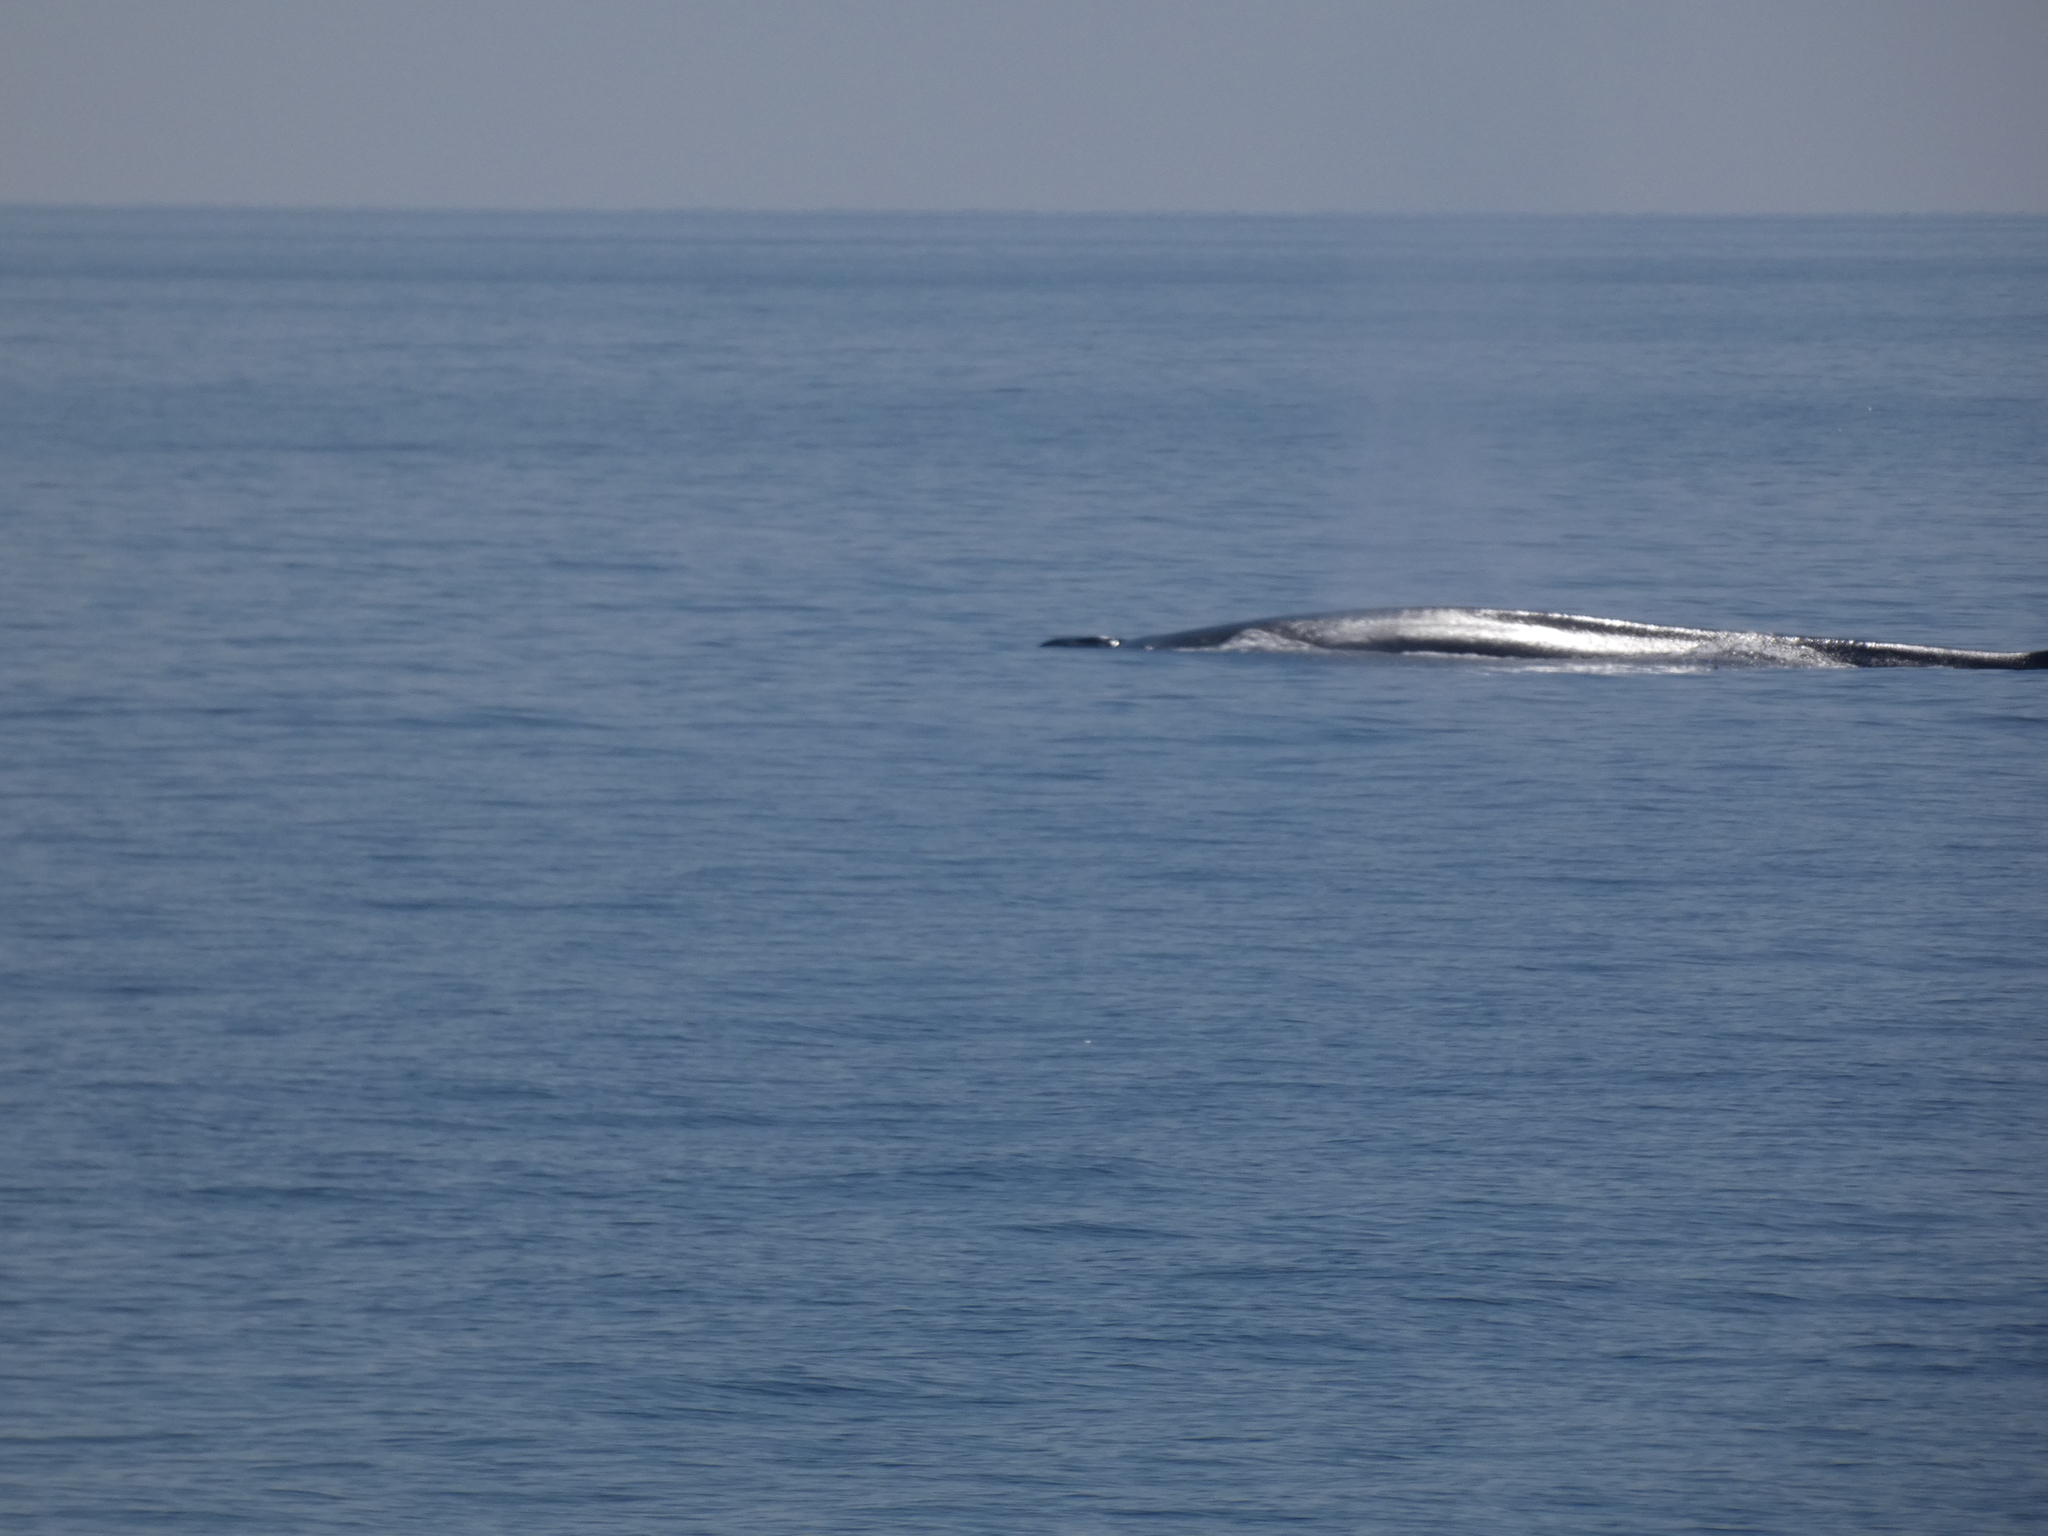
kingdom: Animalia
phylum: Chordata
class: Mammalia
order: Cetacea
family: Balaenopteridae
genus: Balaenoptera
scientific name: Balaenoptera physalus
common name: Fin whale
